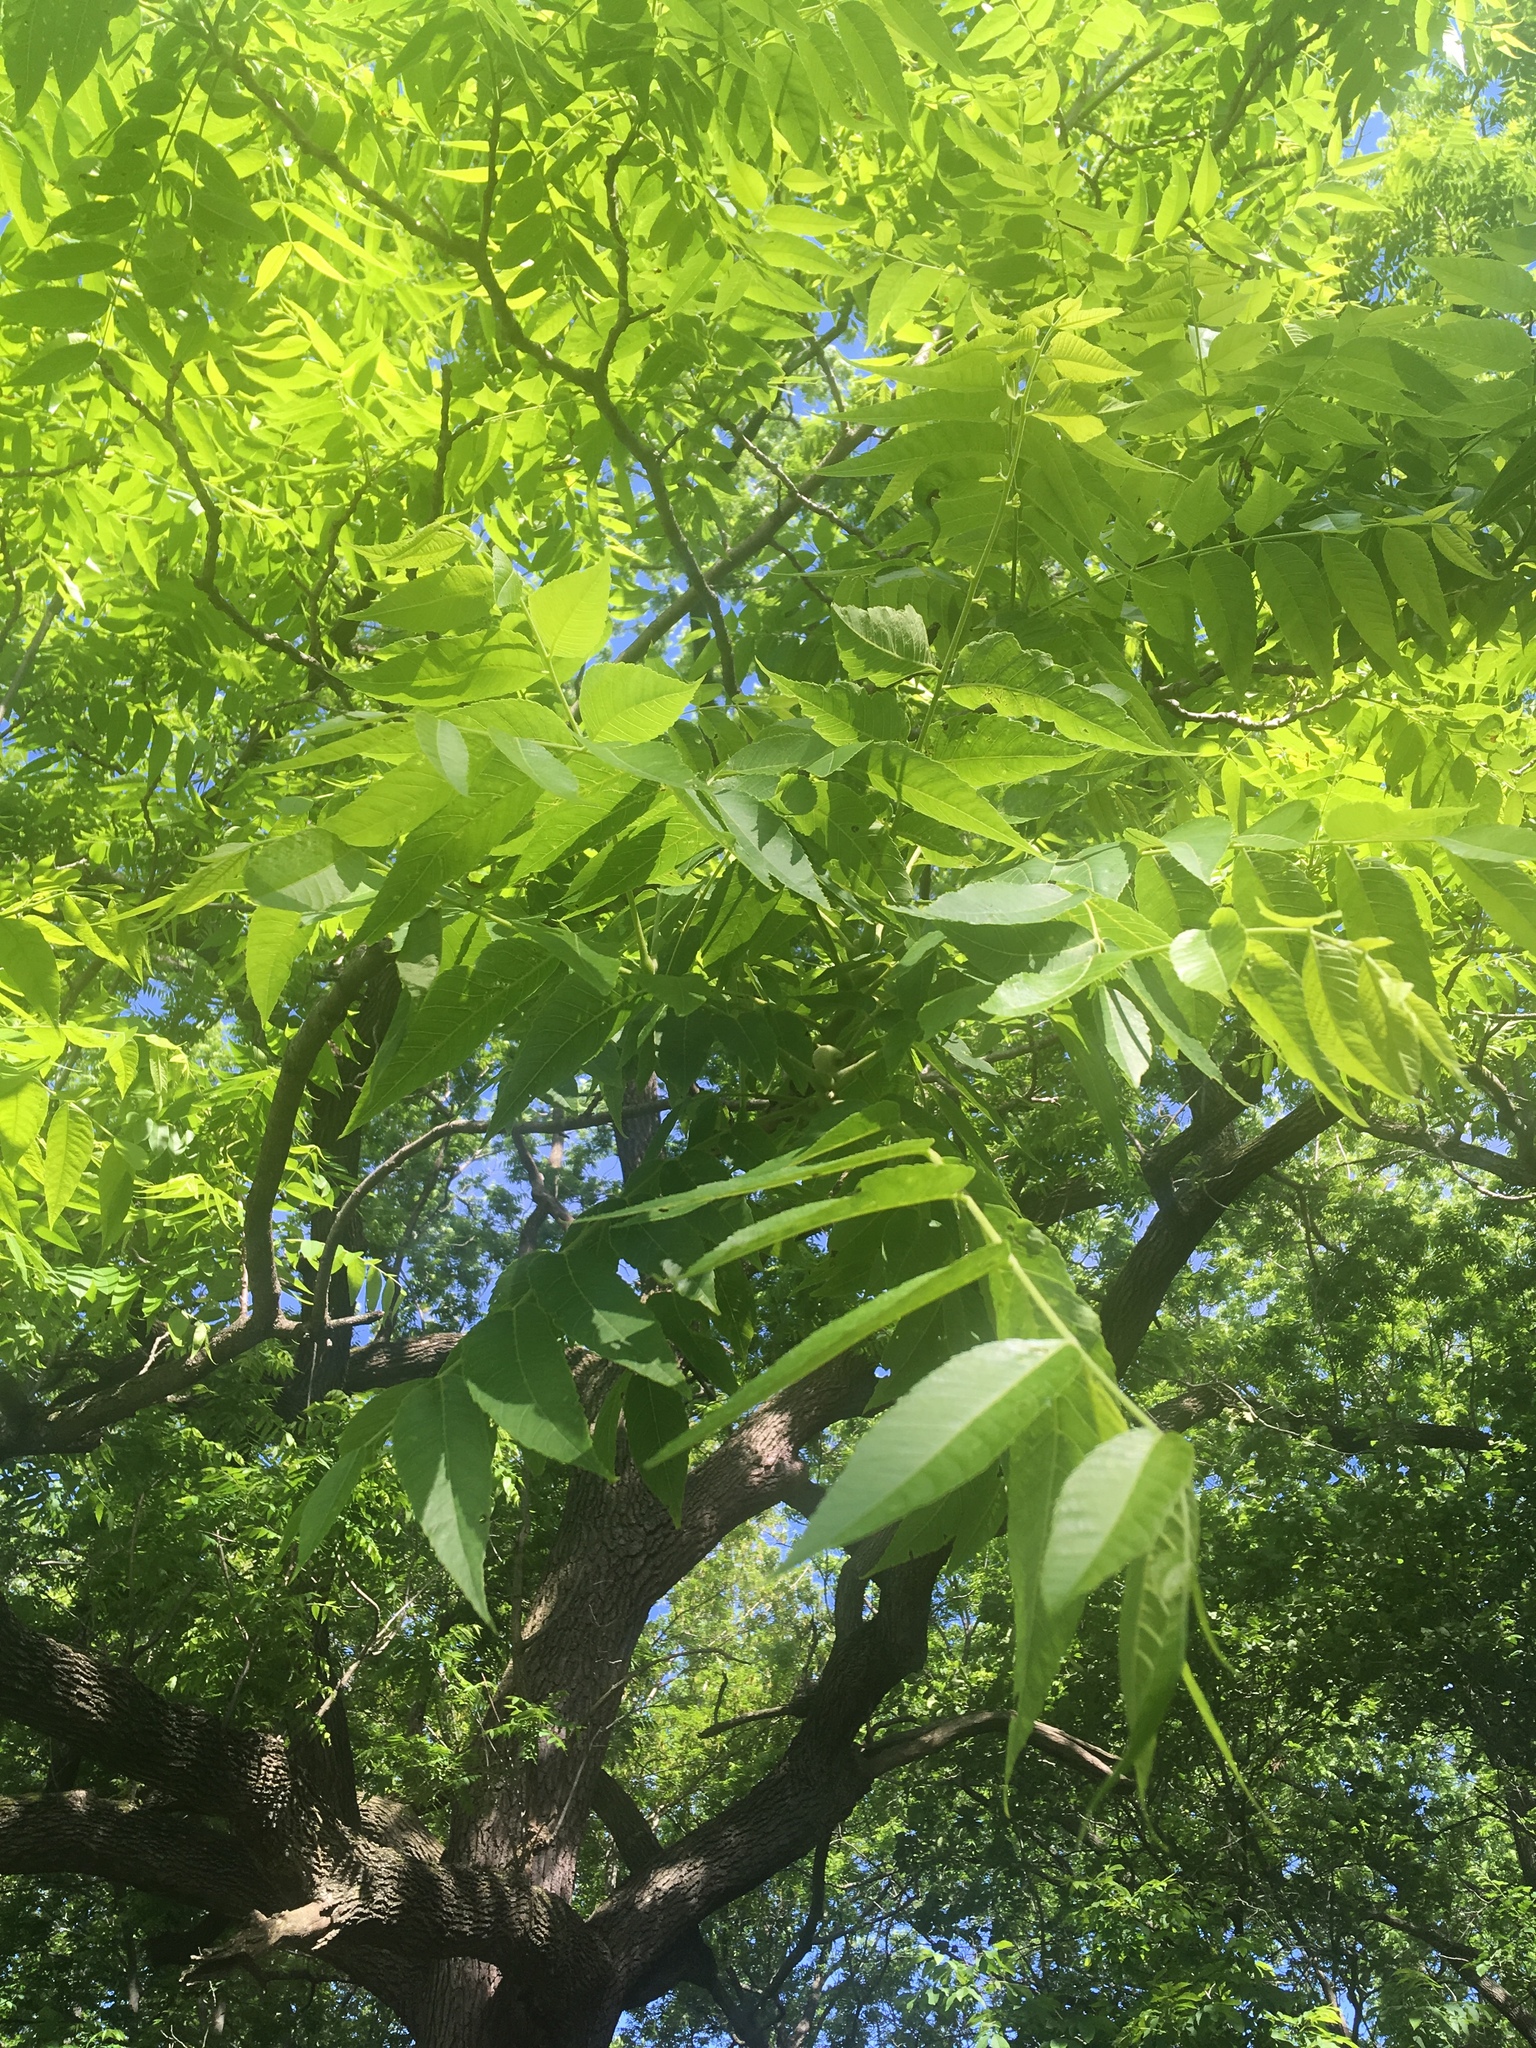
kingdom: Plantae
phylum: Tracheophyta
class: Magnoliopsida
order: Fagales
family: Juglandaceae
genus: Juglans
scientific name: Juglans nigra
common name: Black walnut
